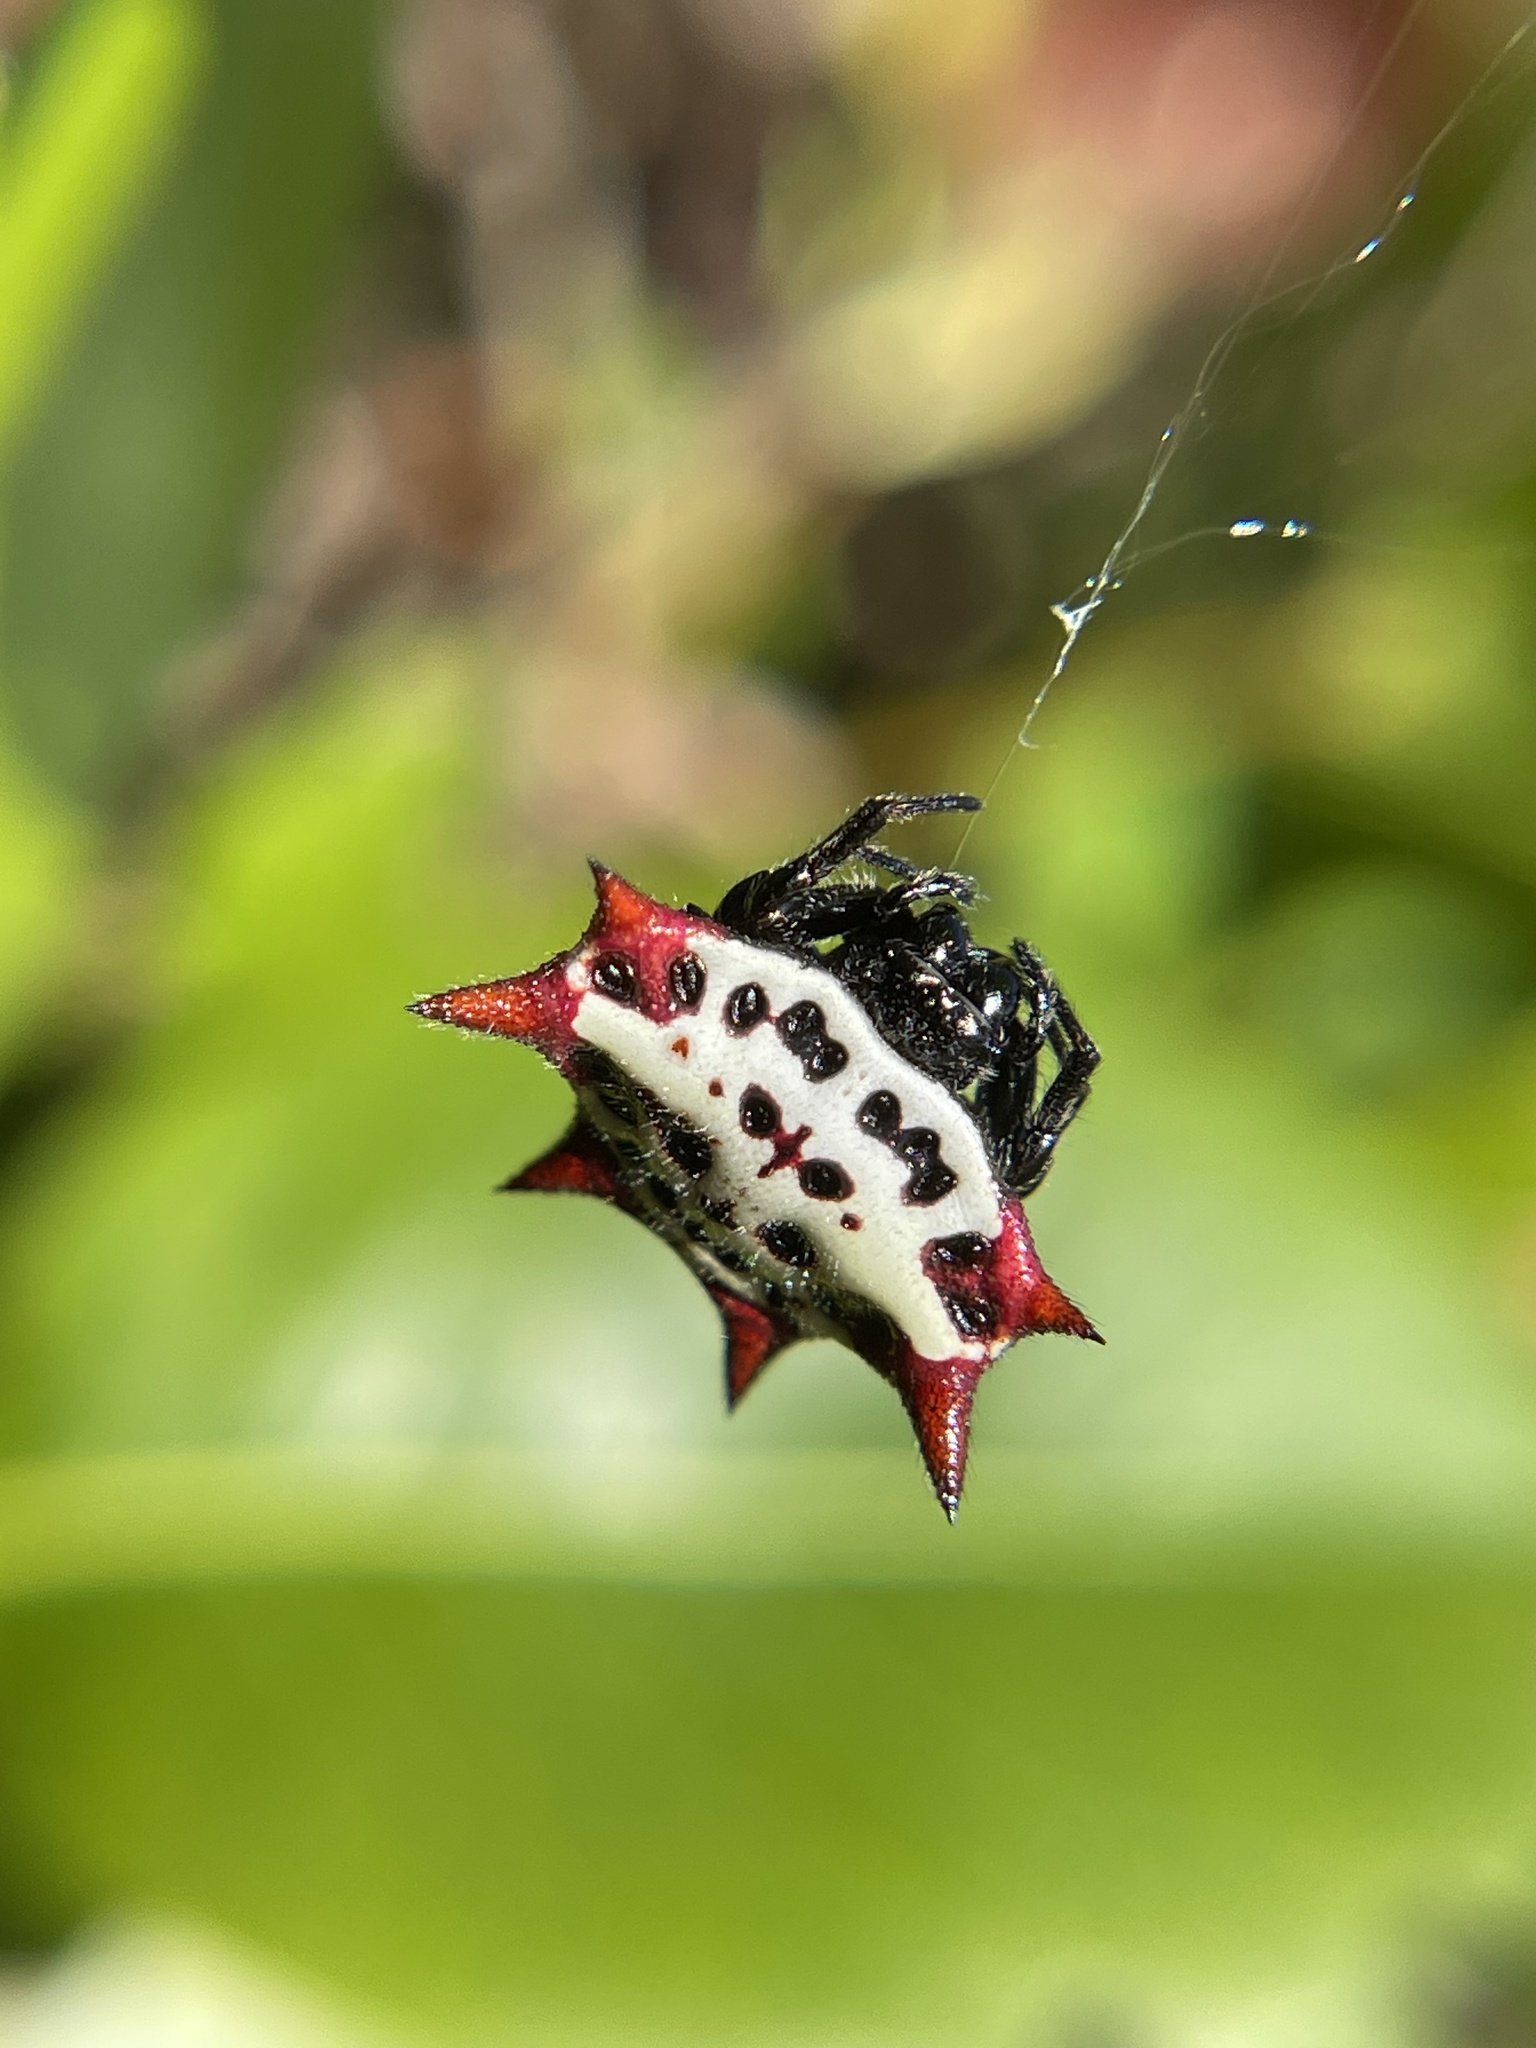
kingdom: Animalia
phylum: Arthropoda
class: Arachnida
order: Araneae
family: Araneidae
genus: Gasteracantha
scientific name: Gasteracantha cancriformis
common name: Orb weavers
